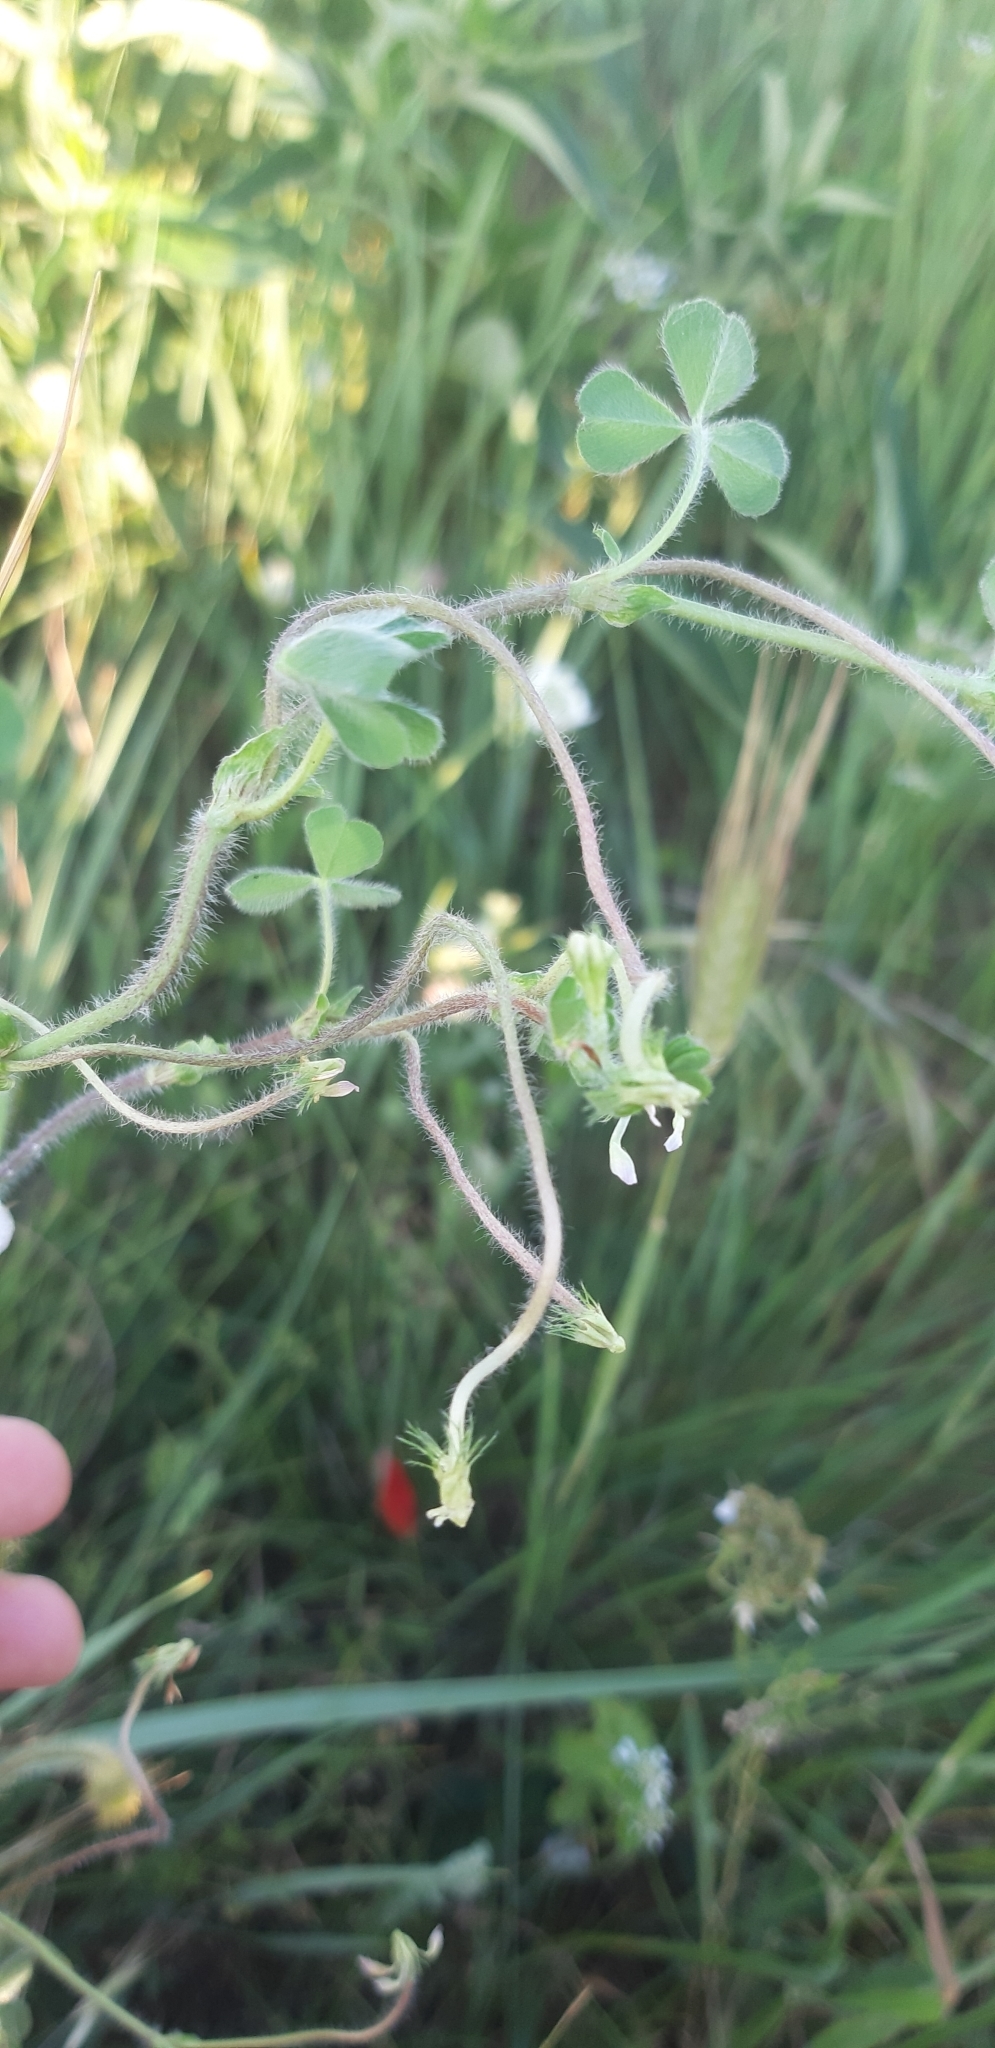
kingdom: Plantae
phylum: Tracheophyta
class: Magnoliopsida
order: Fabales
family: Fabaceae
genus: Trifolium
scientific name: Trifolium subterraneum
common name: Subterranean clover
